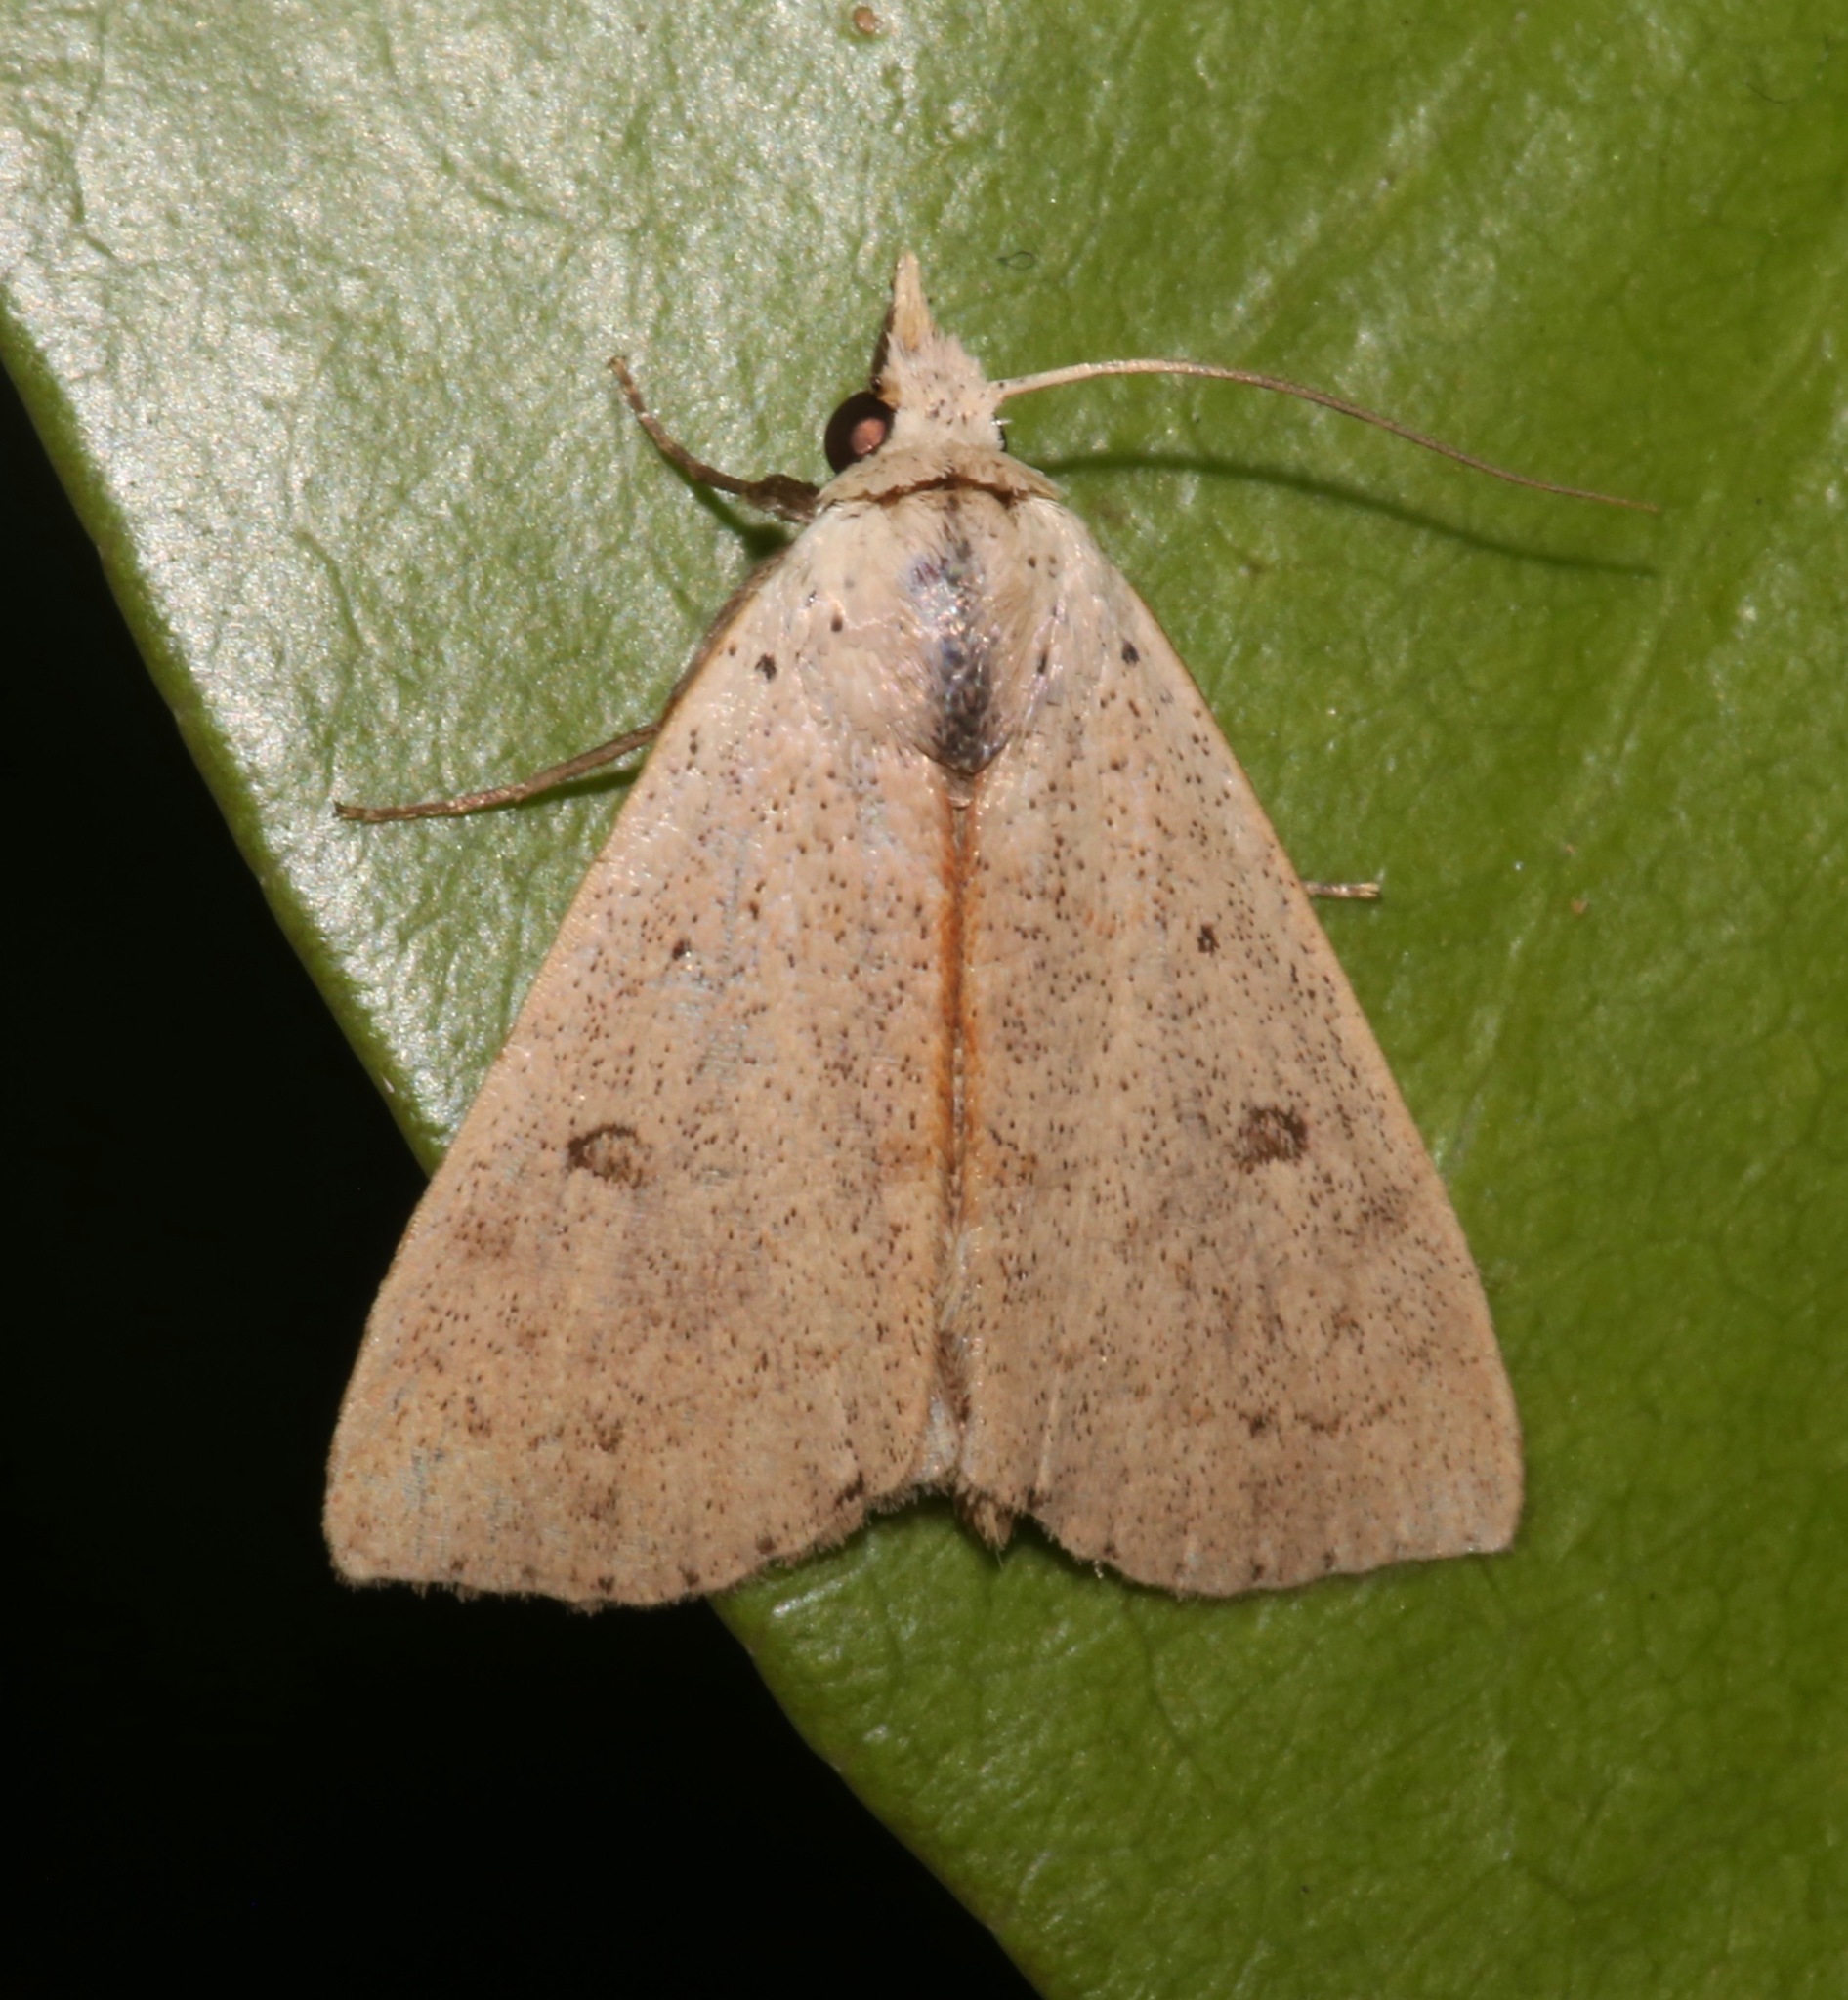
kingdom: Animalia
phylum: Arthropoda
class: Insecta
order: Lepidoptera
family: Erebidae
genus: Scolecocampa
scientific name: Scolecocampa liburna
